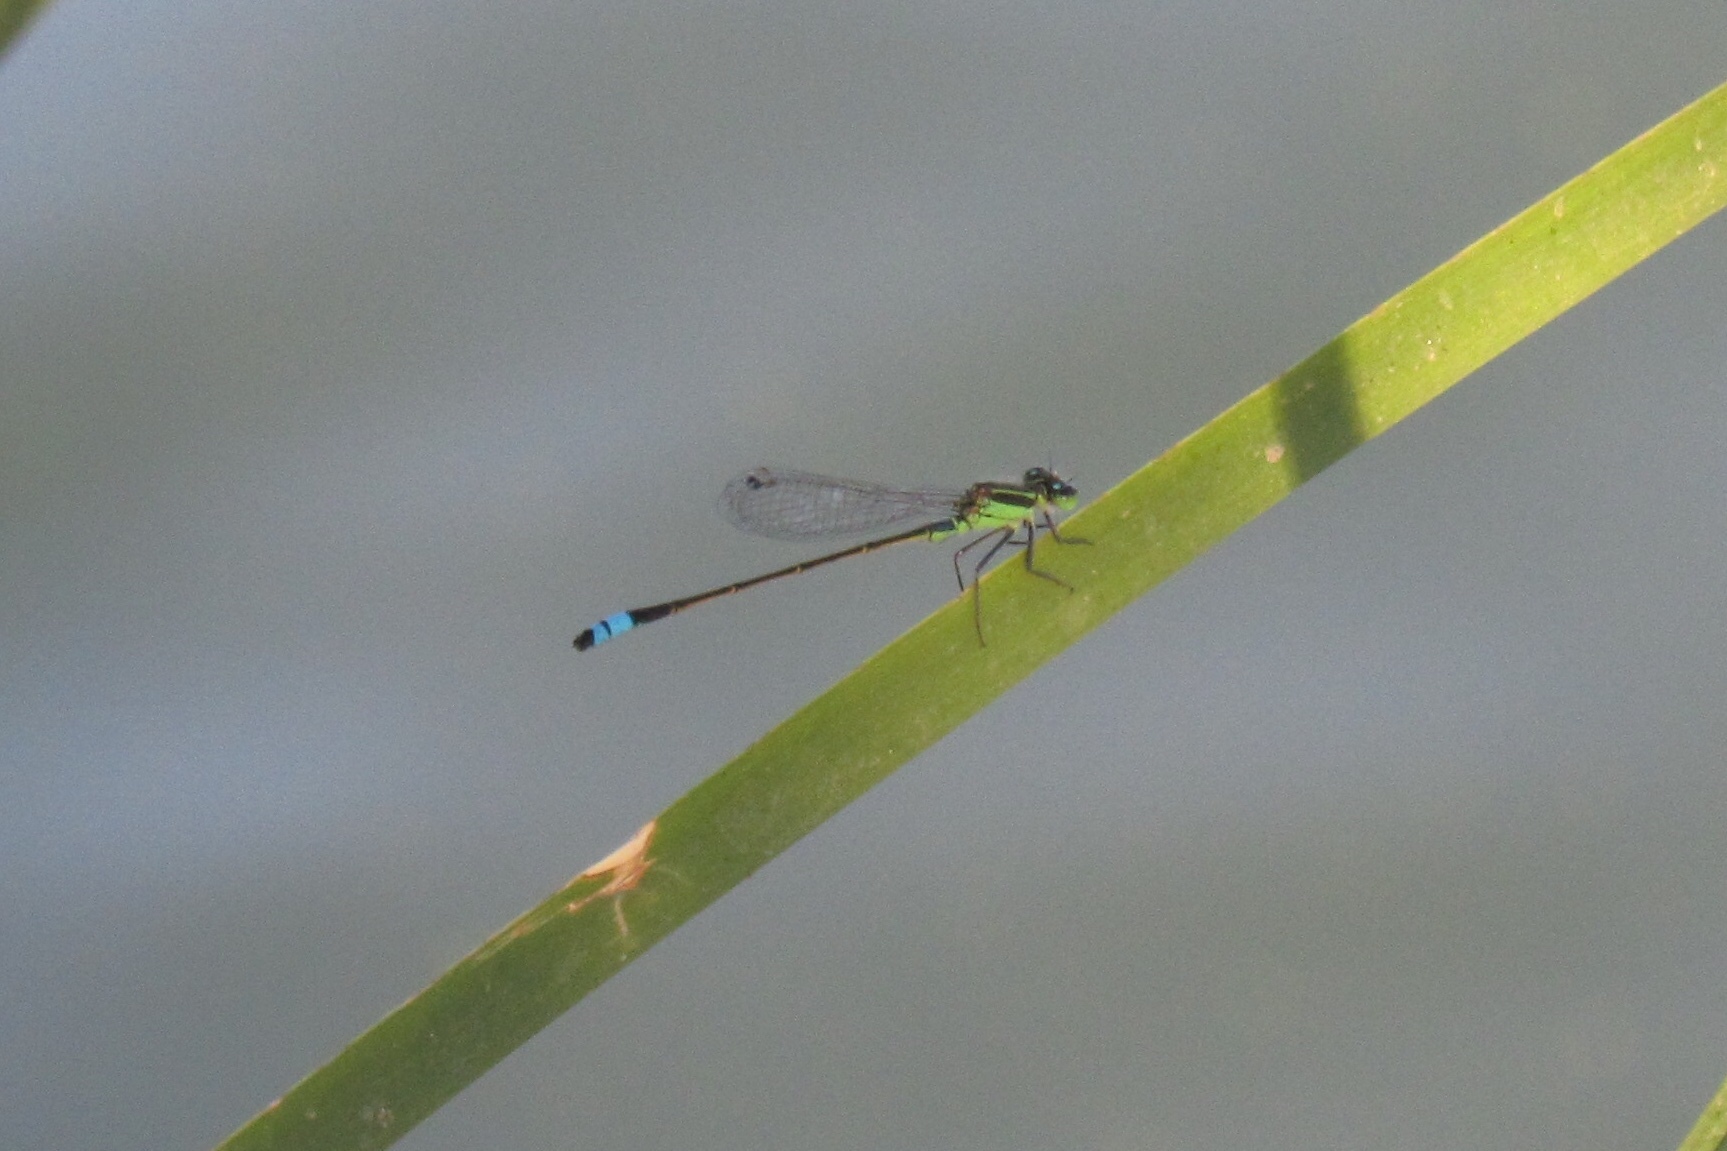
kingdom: Animalia
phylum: Arthropoda
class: Insecta
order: Odonata
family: Coenagrionidae
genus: Ischnura
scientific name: Ischnura ramburii
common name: Rambur's forktail
